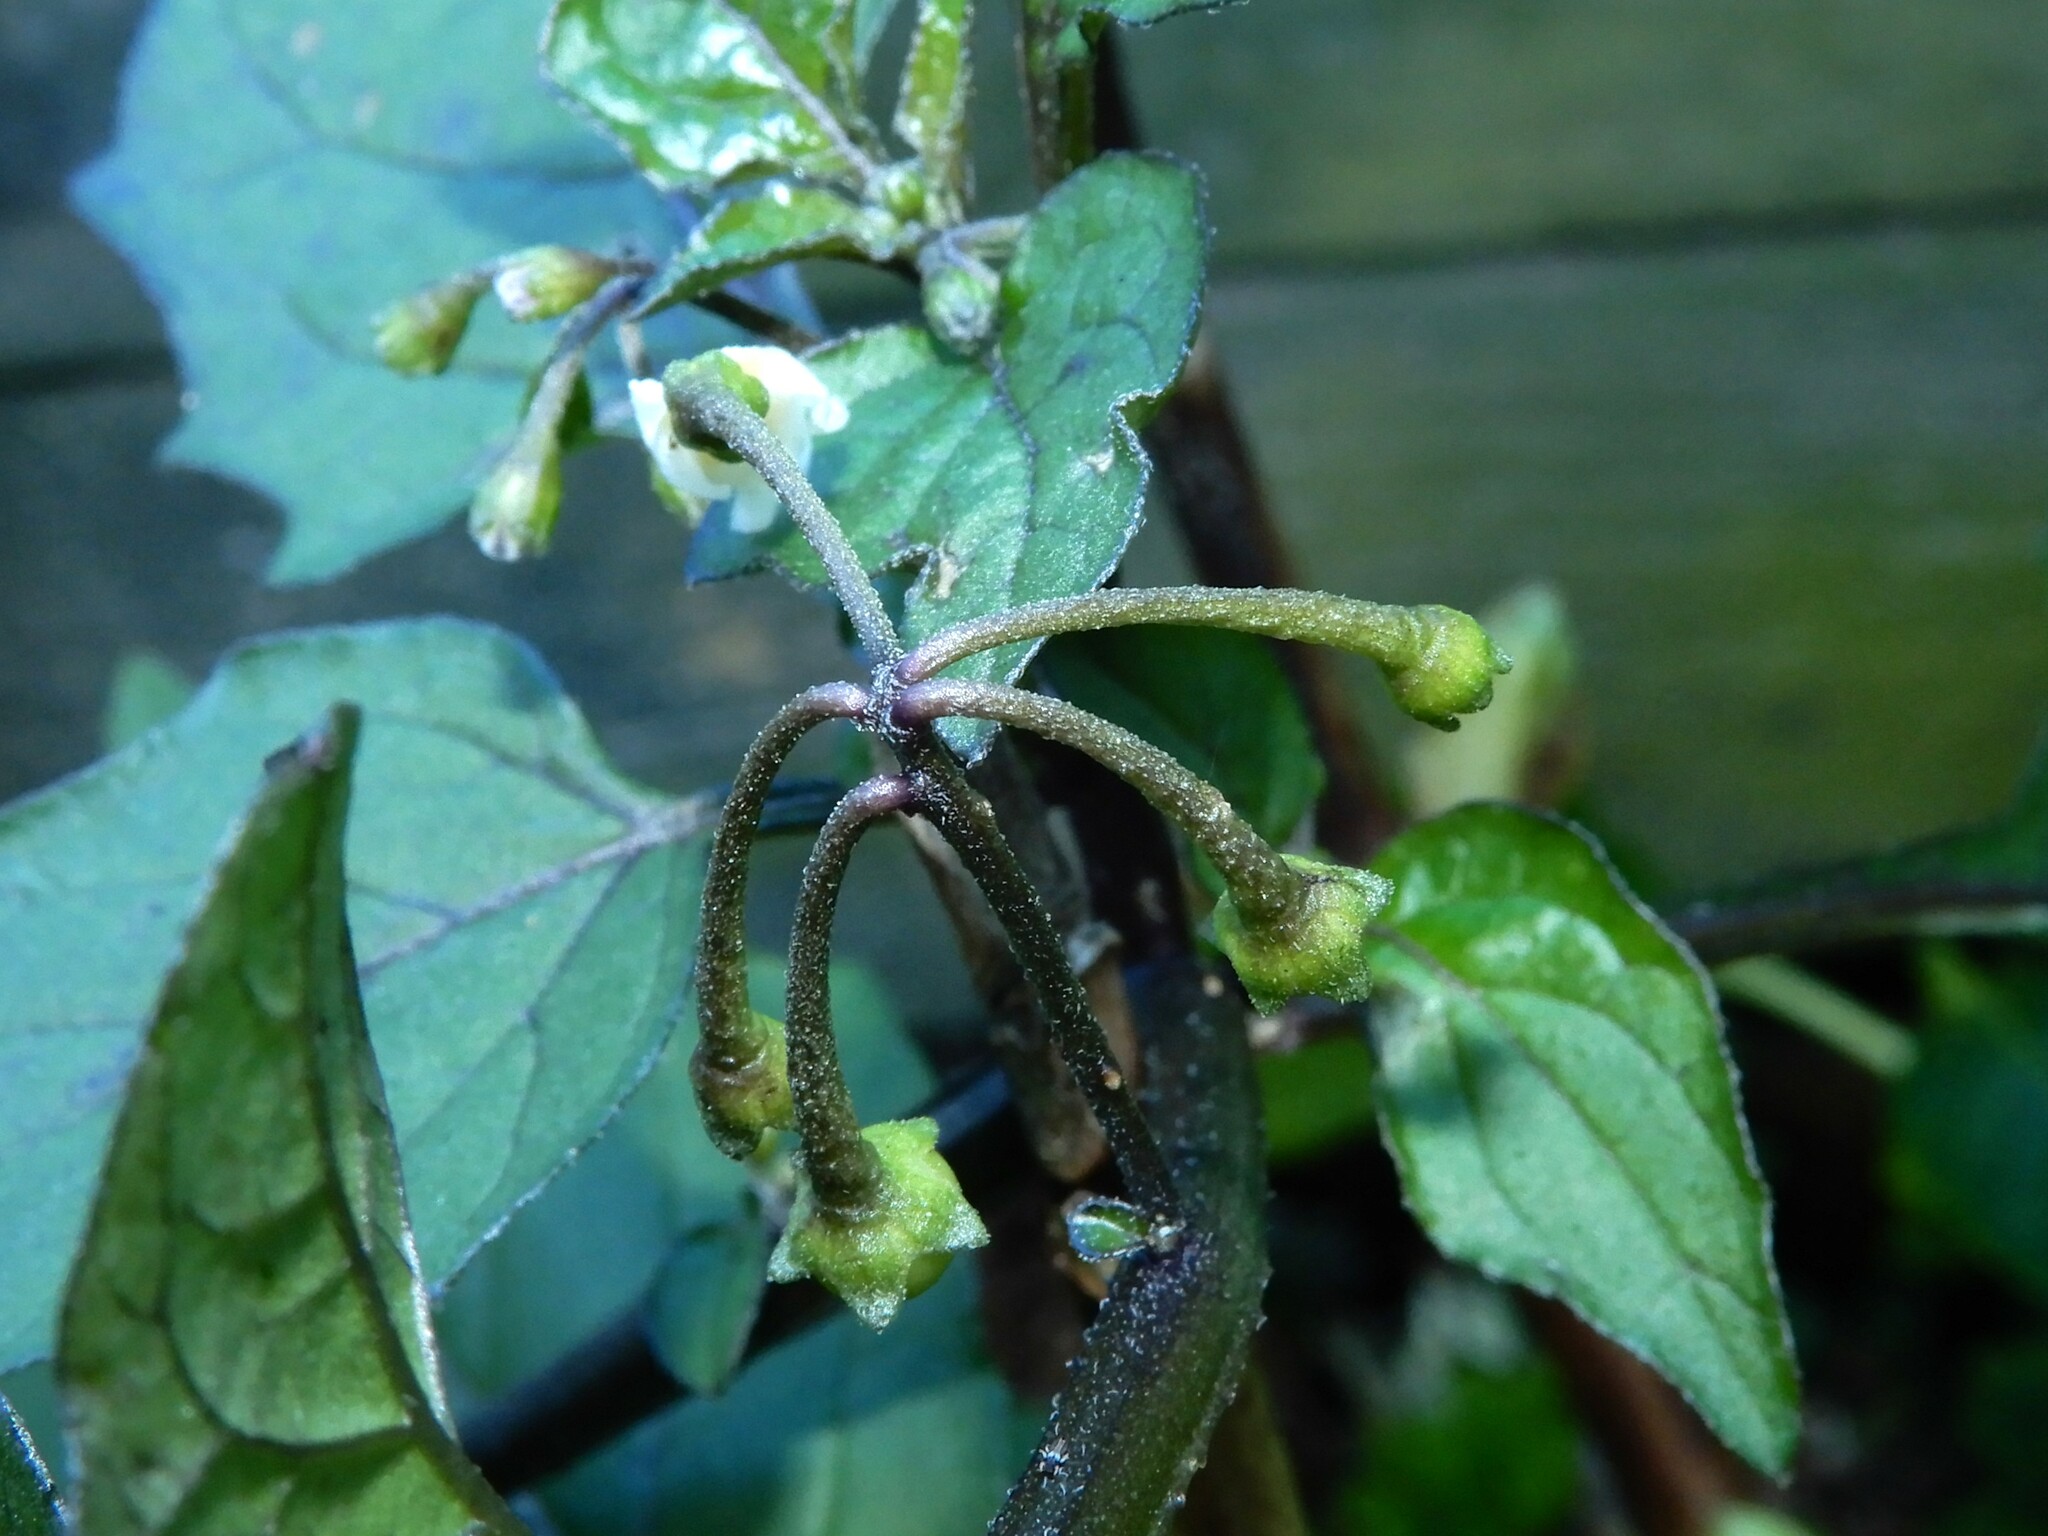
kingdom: Plantae
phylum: Tracheophyta
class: Magnoliopsida
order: Solanales
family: Solanaceae
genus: Solanum
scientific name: Solanum nigrum
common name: Black nightshade
